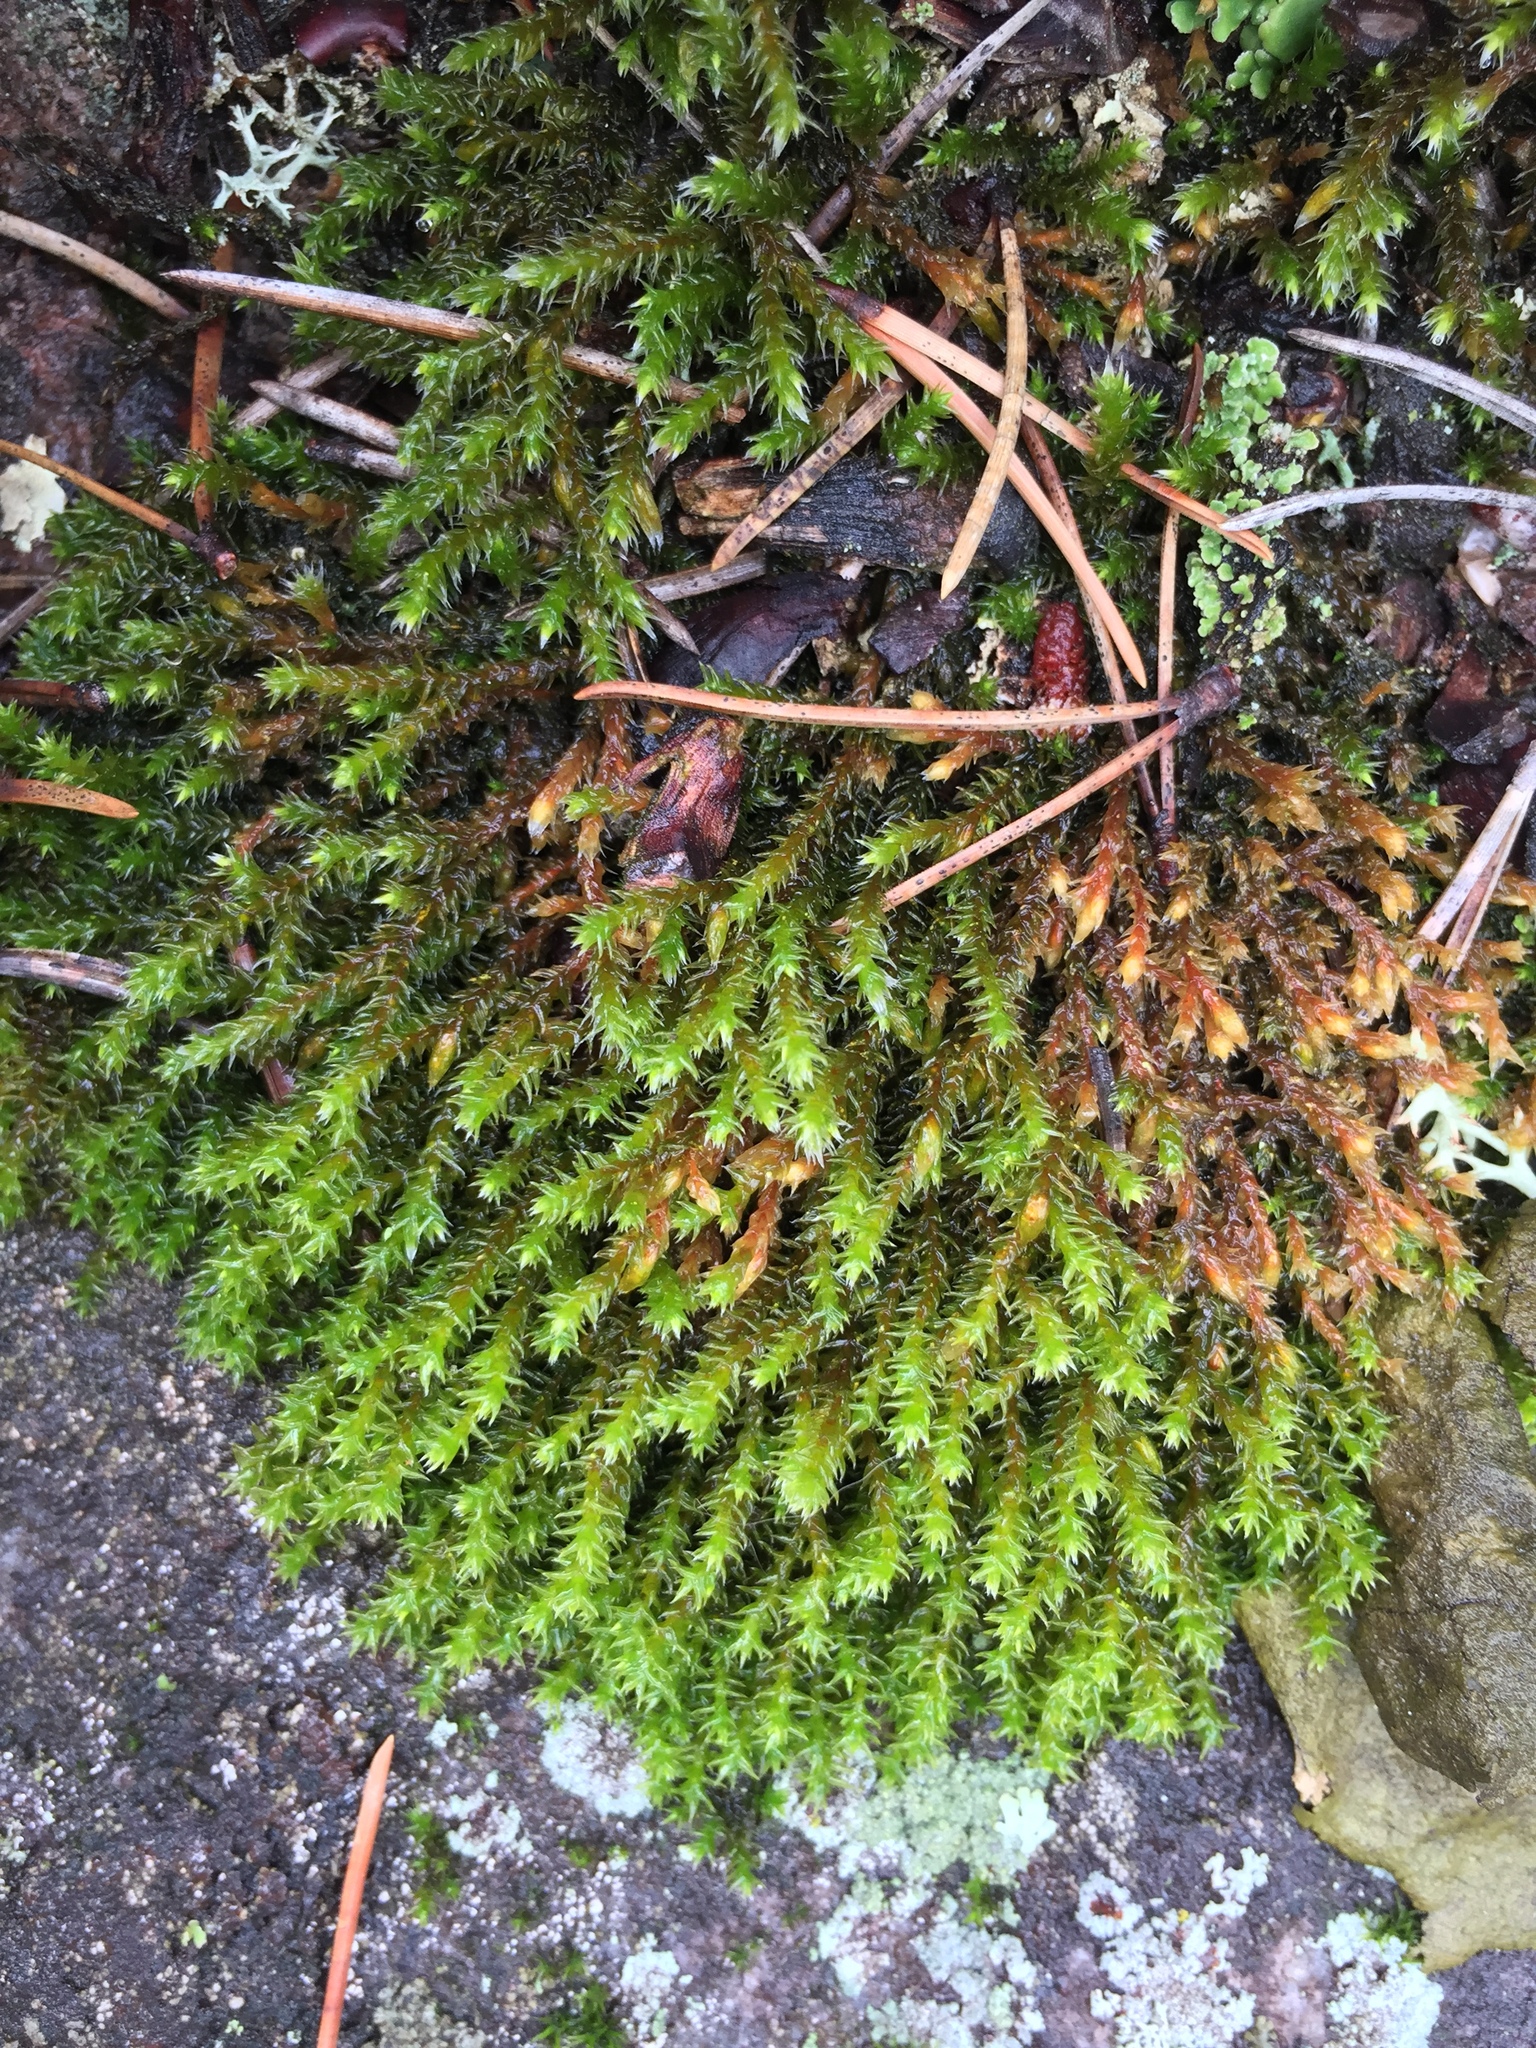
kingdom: Plantae
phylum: Bryophyta
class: Bryopsida
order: Hedwigiales
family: Hedwigiaceae
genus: Hedwigia
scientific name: Hedwigia ciliata
